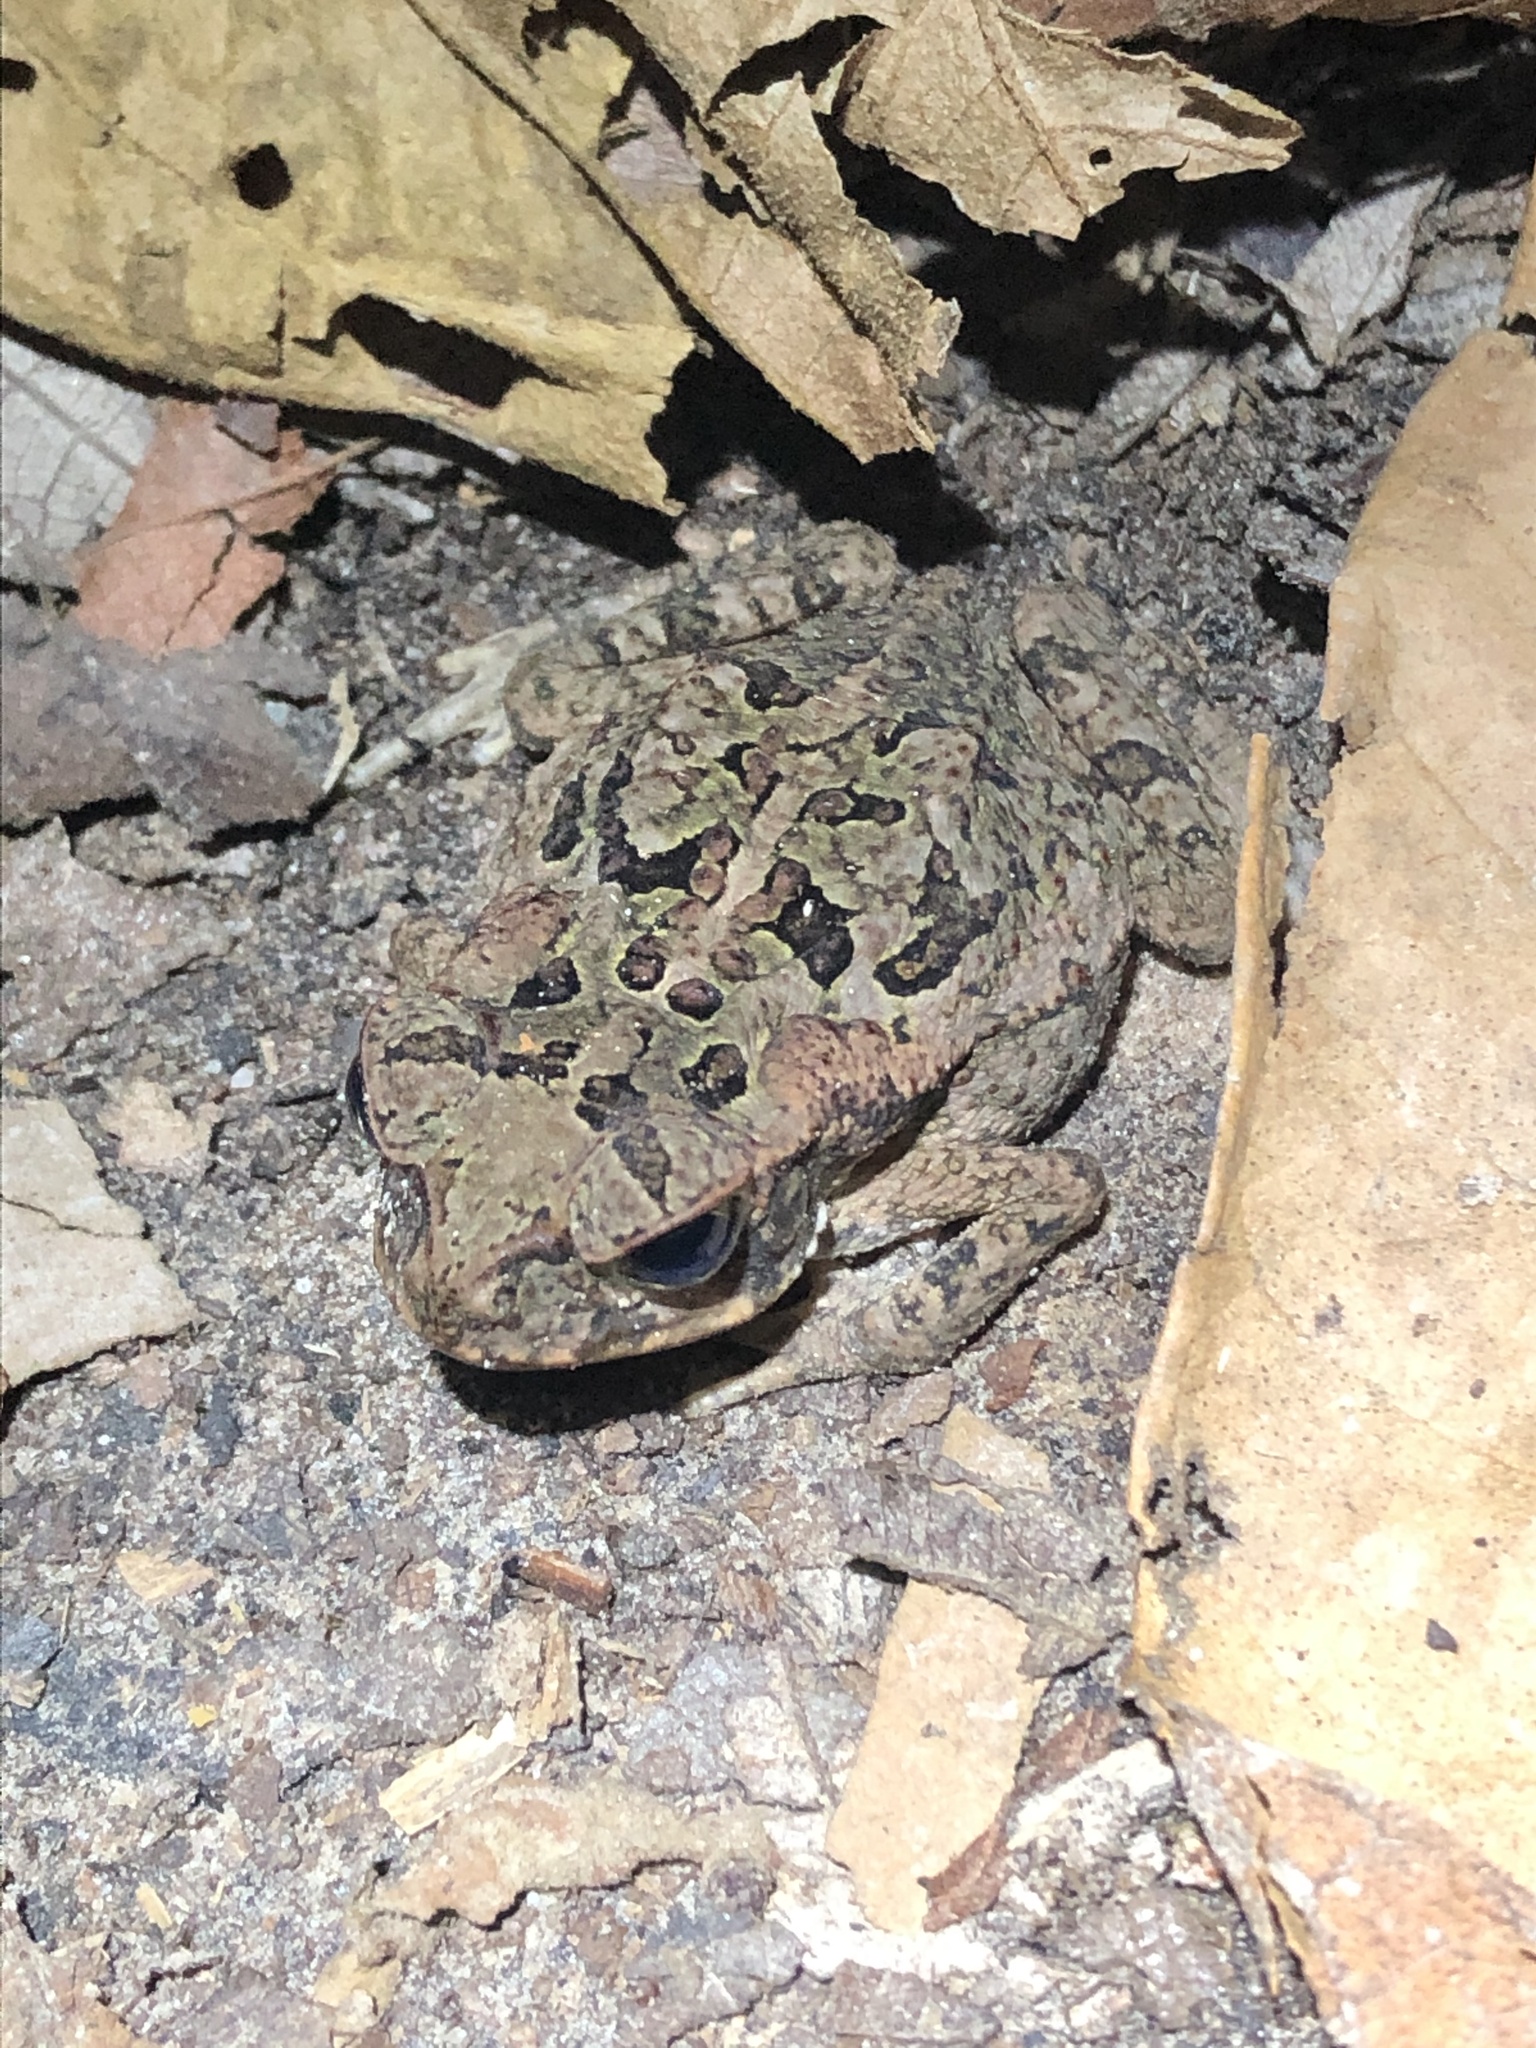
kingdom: Animalia
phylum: Chordata
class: Amphibia
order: Anura
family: Bufonidae
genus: Rhinella
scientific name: Rhinella marina
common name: Cane toad
